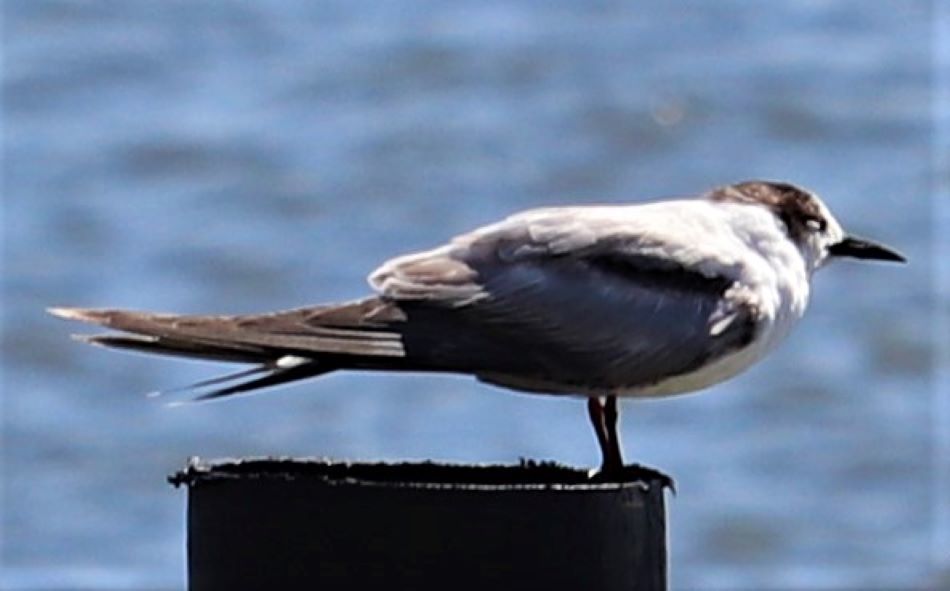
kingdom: Animalia
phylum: Chordata
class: Aves
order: Charadriiformes
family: Laridae
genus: Sterna
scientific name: Sterna hirundo
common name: Common tern
